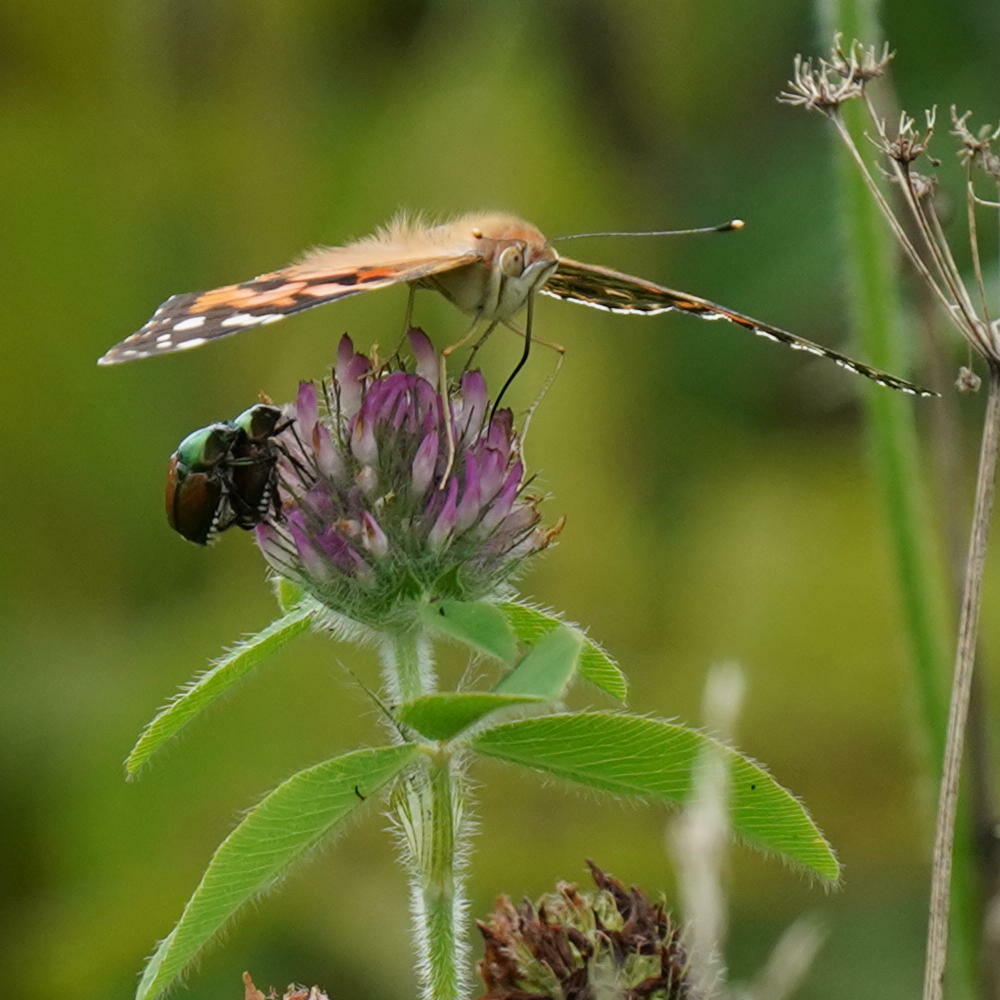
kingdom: Animalia
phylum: Arthropoda
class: Insecta
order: Lepidoptera
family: Nymphalidae
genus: Vanessa
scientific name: Vanessa cardui
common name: Painted lady
